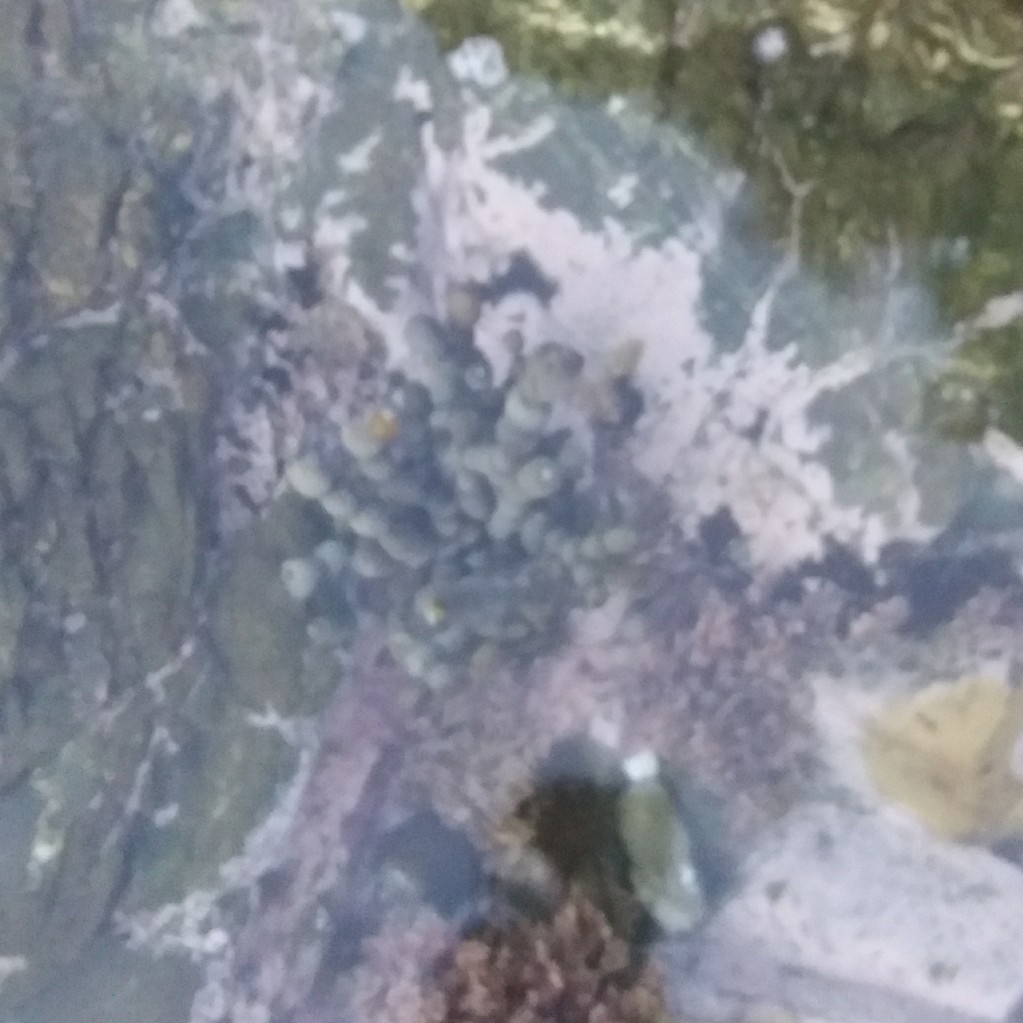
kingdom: Chromista
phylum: Ochrophyta
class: Phaeophyceae
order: Fucales
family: Hormosiraceae
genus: Hormosira
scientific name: Hormosira banksii
